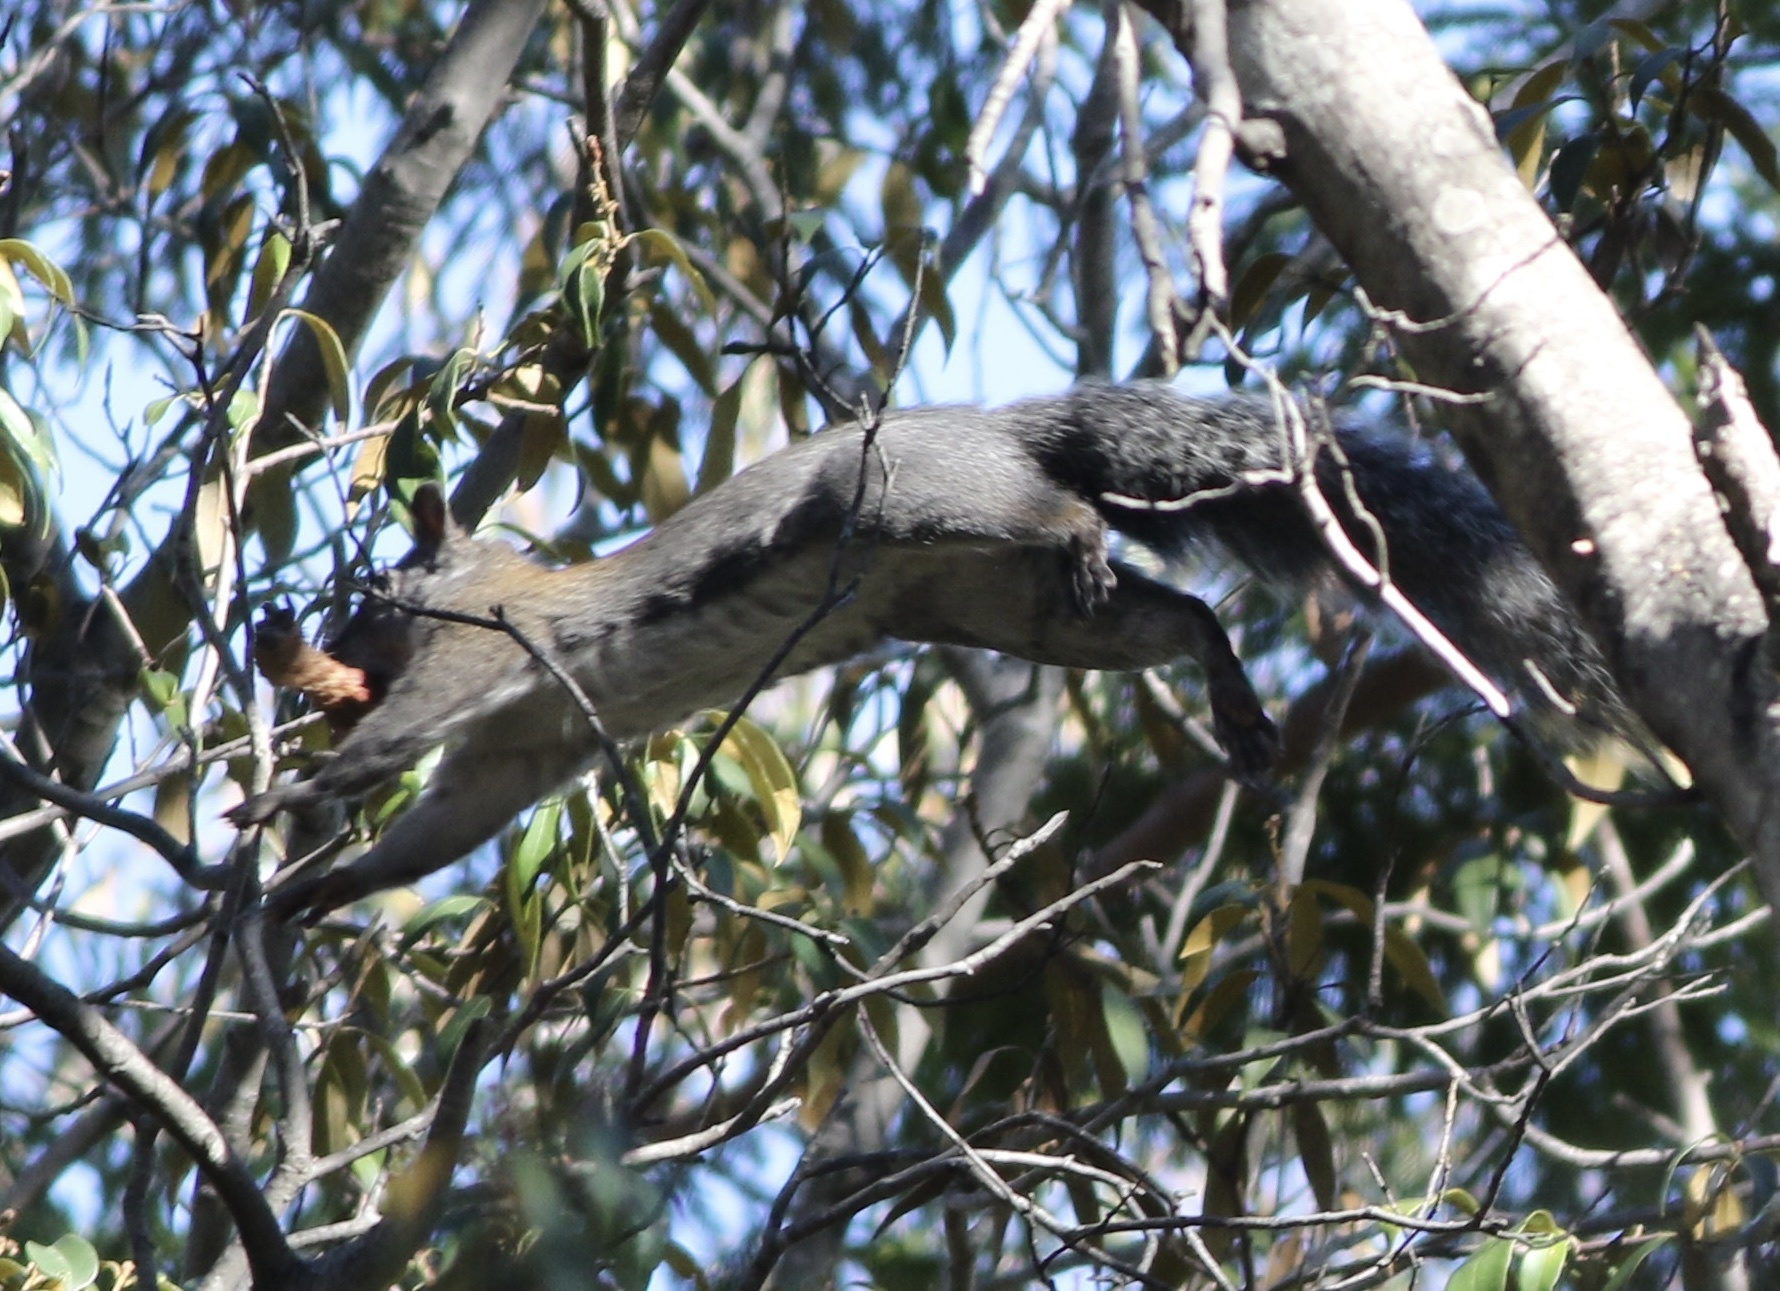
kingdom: Animalia
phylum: Chordata
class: Mammalia
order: Rodentia
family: Sciuridae
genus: Sciurus
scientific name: Sciurus griseus
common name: Western gray squirrel
